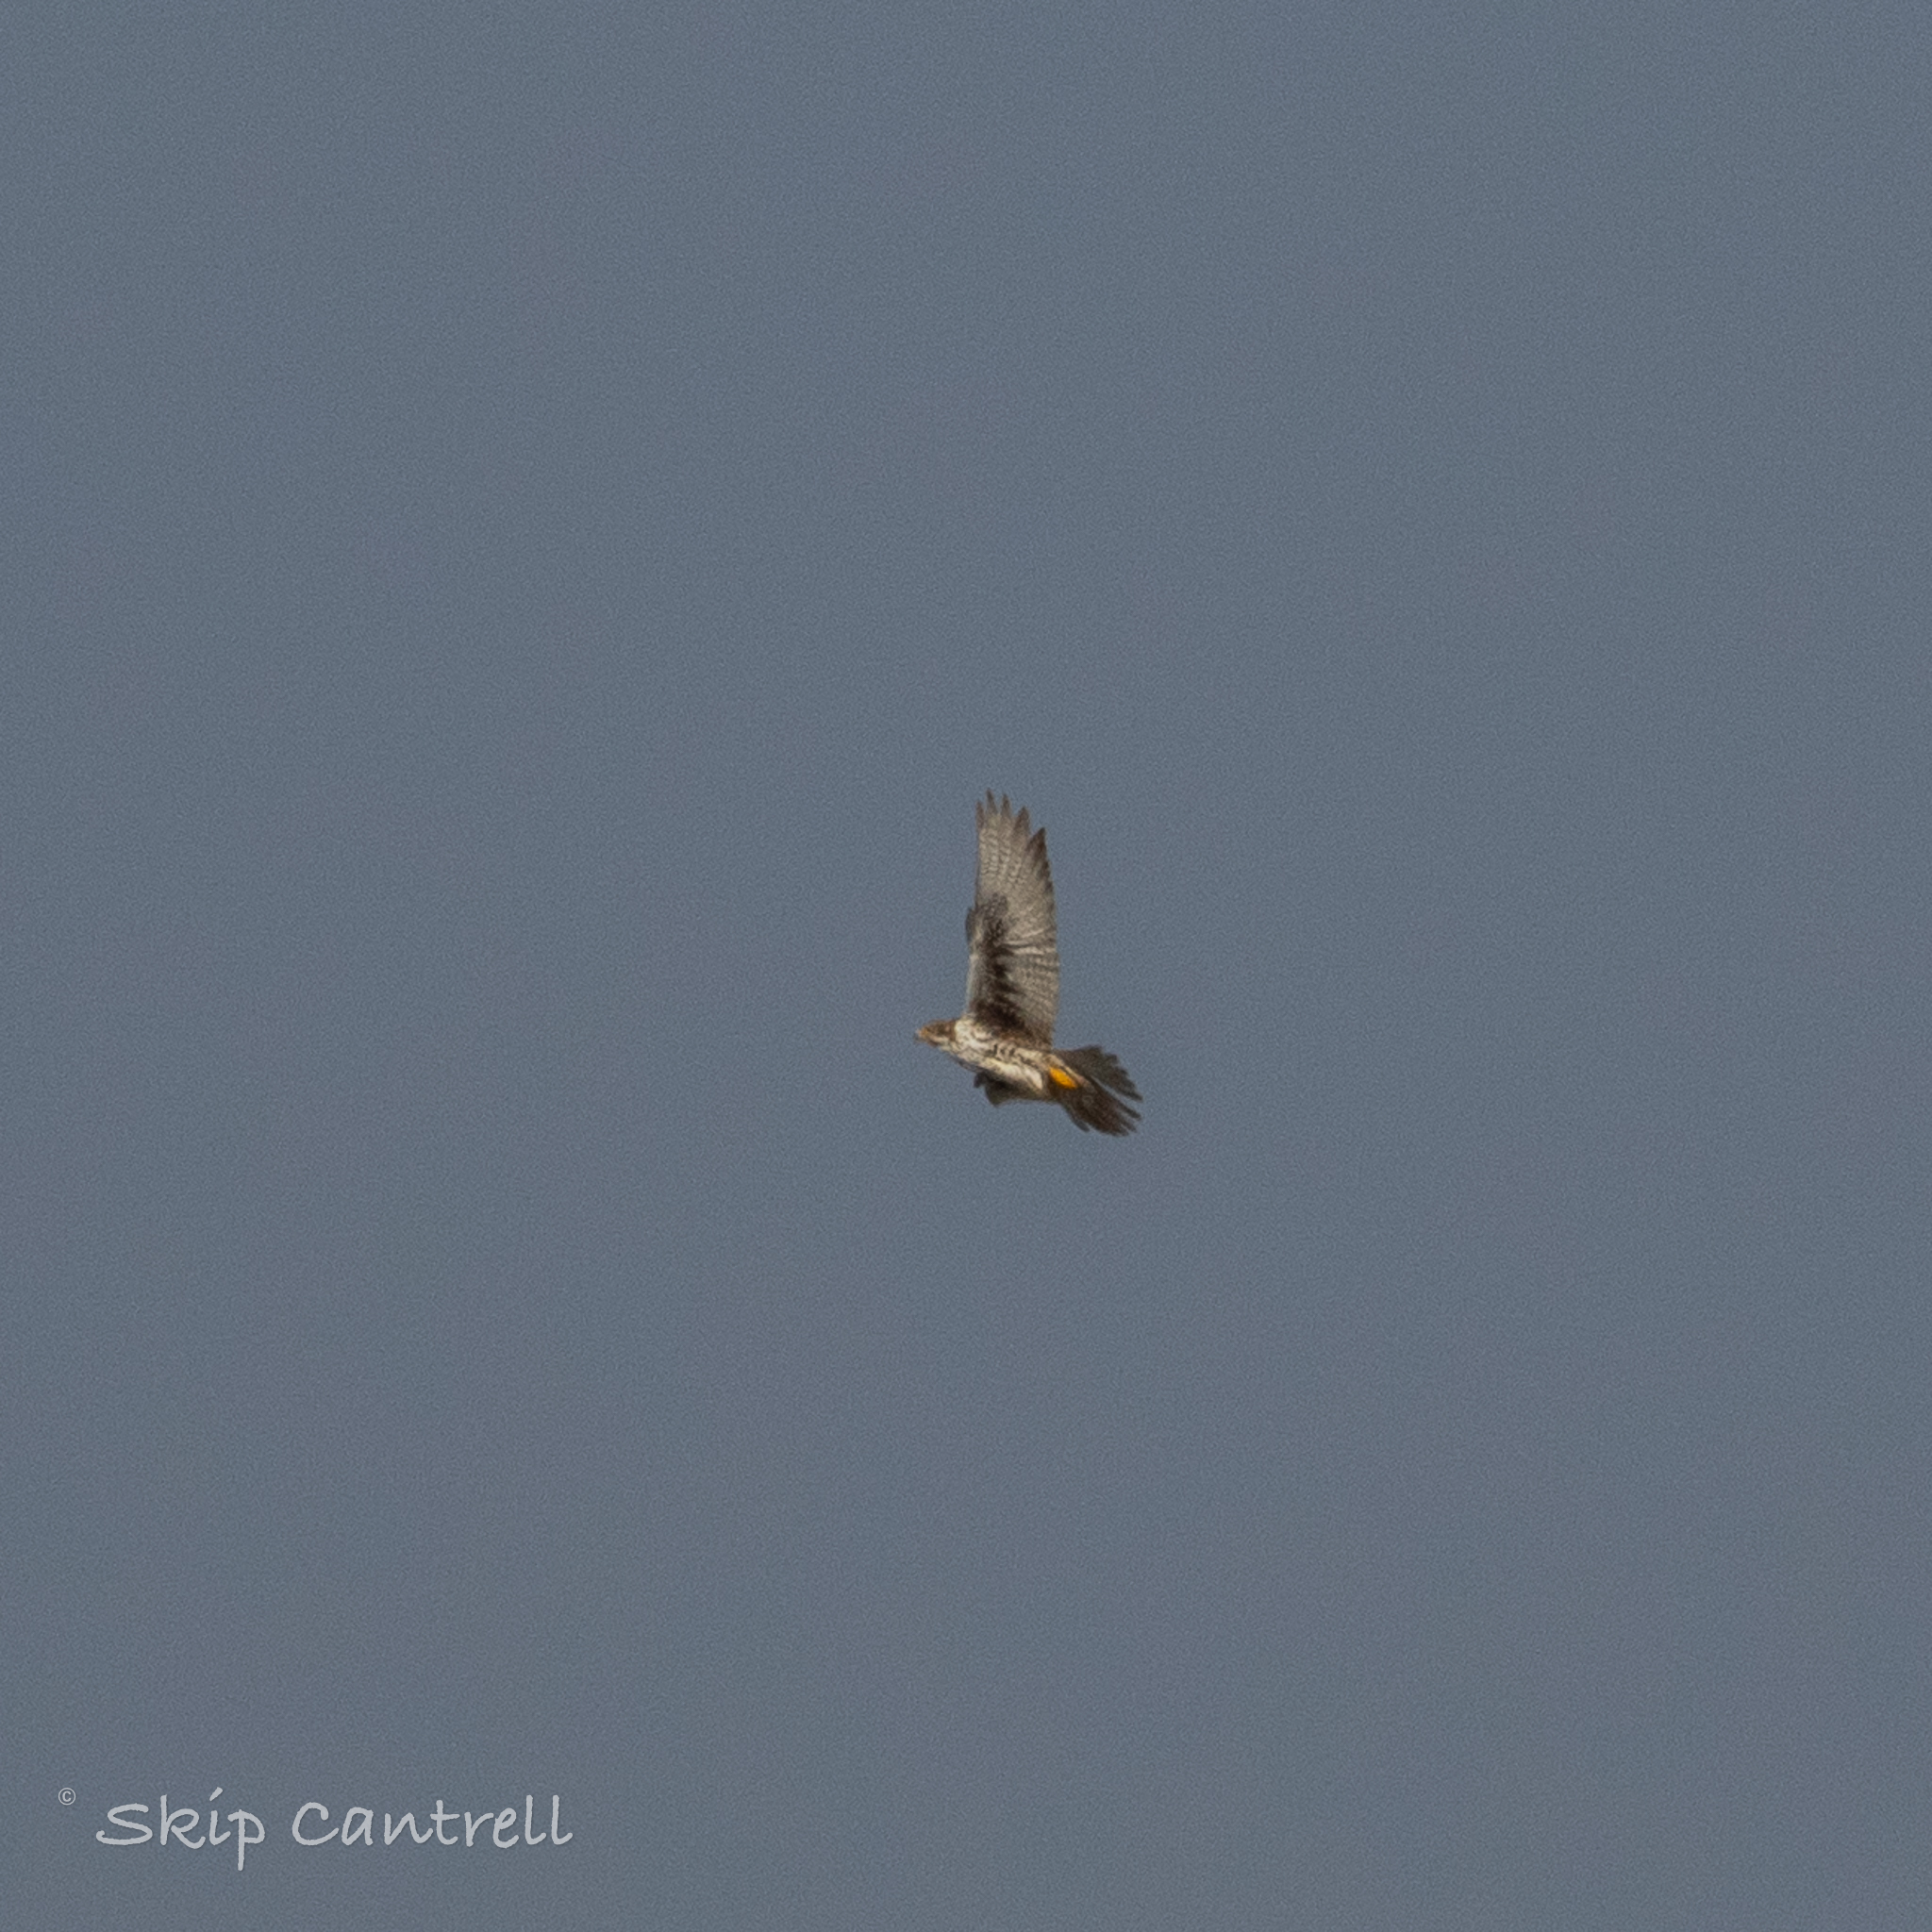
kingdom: Animalia
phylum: Chordata
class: Aves
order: Falconiformes
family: Falconidae
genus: Falco
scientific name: Falco mexicanus
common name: Prairie falcon
